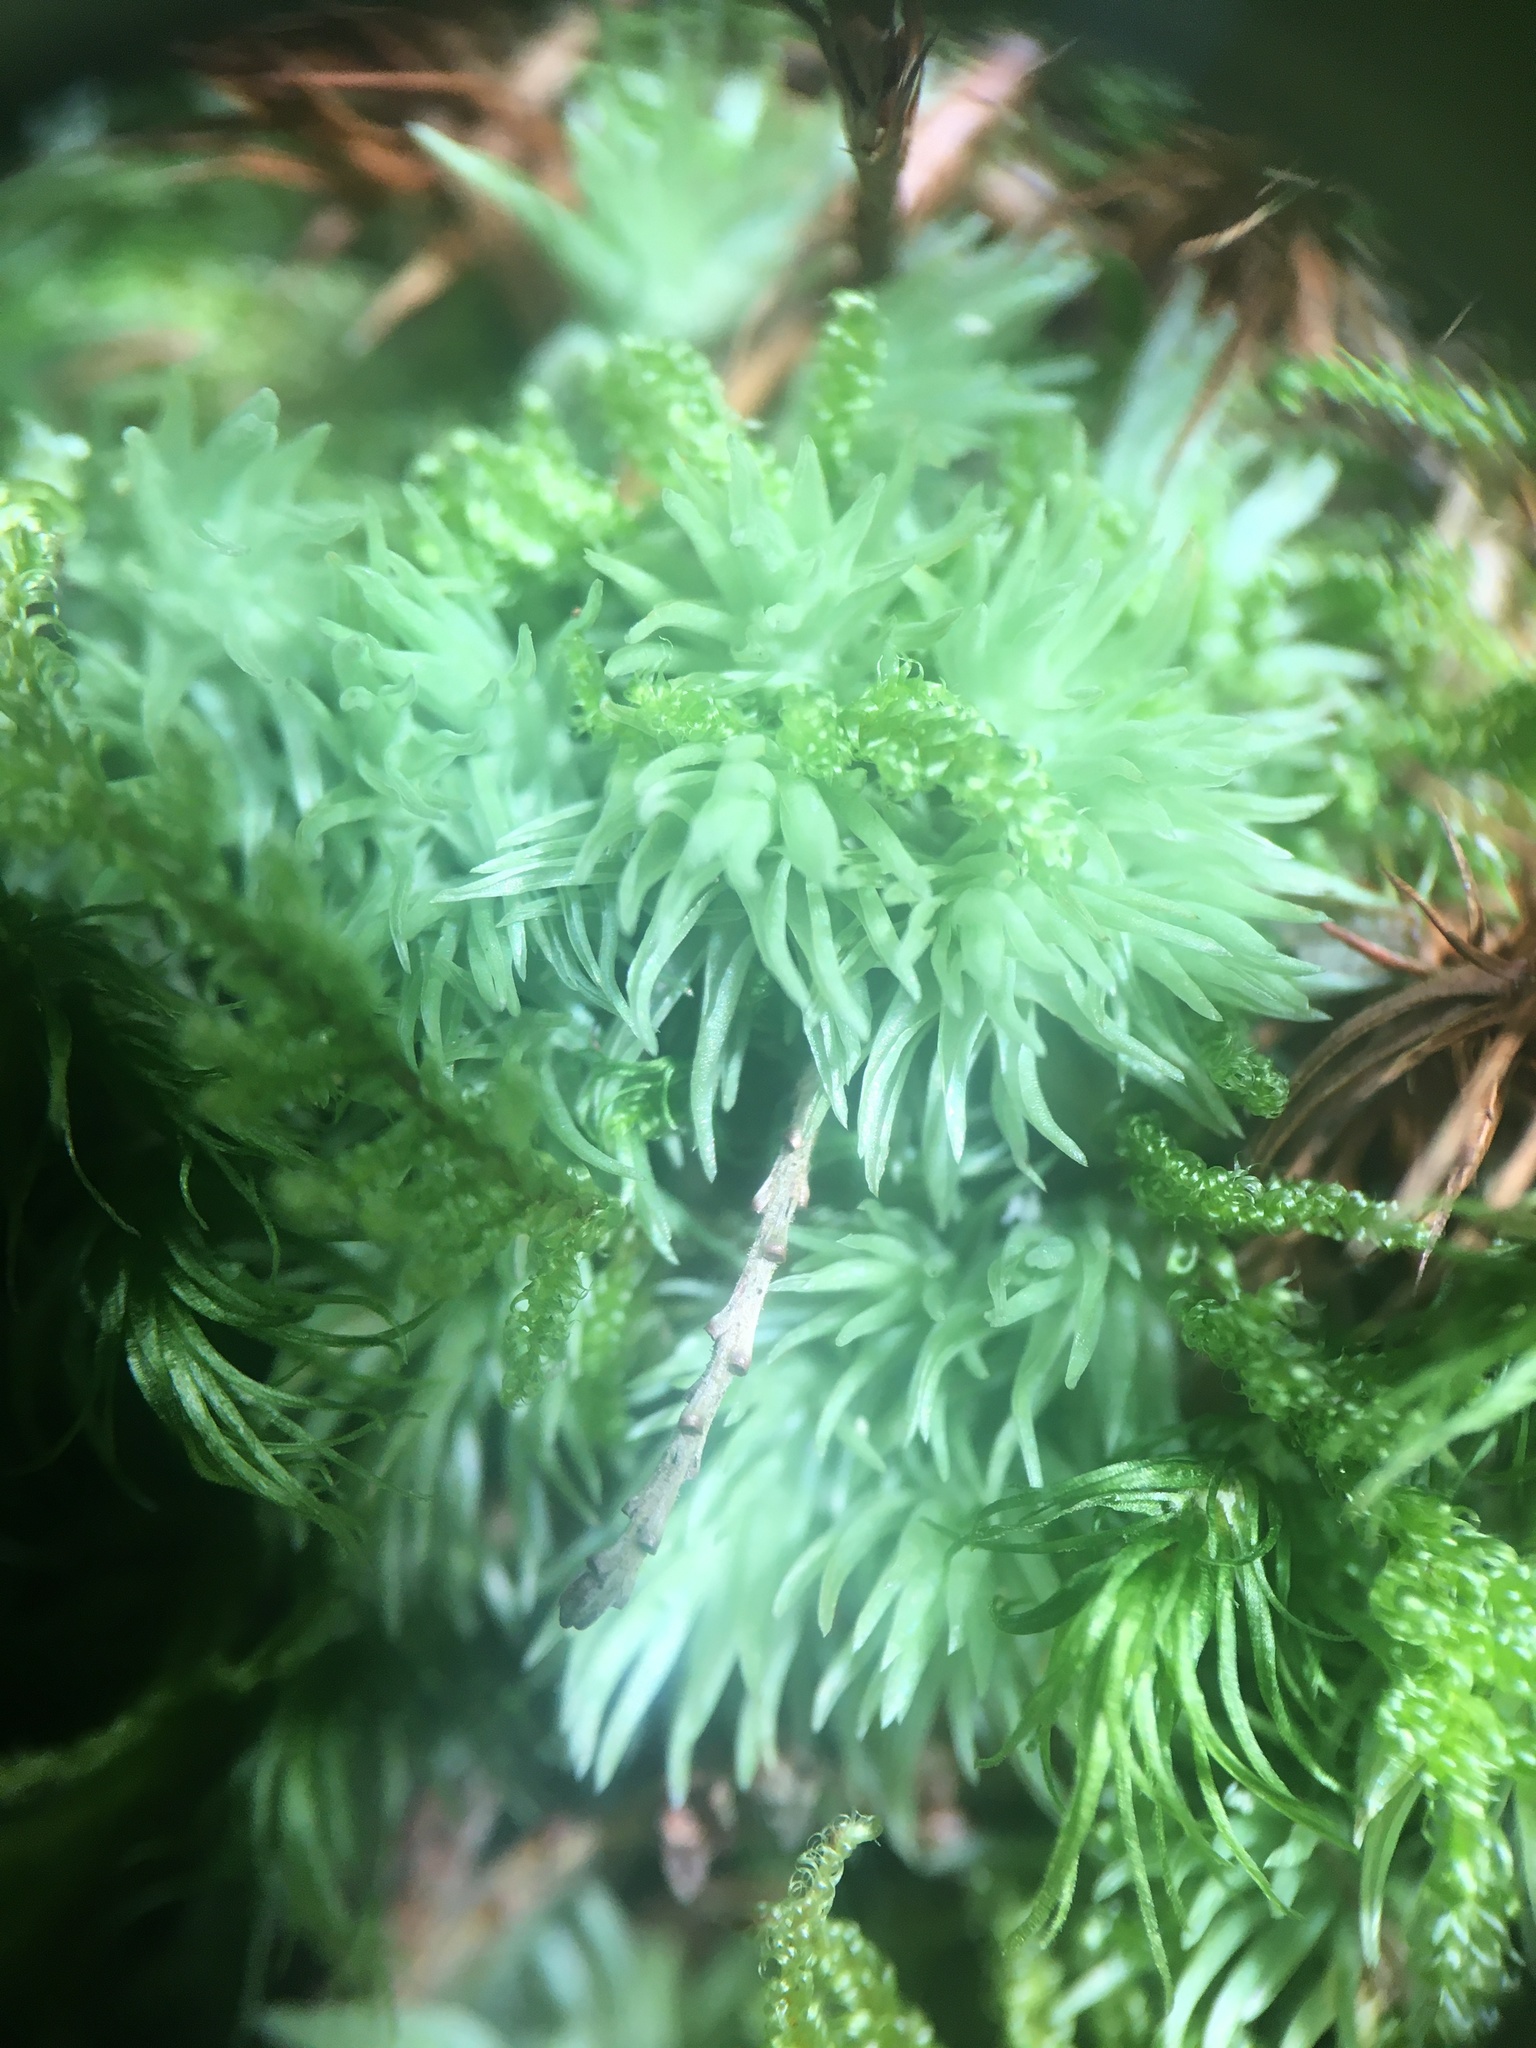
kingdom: Plantae
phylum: Bryophyta
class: Bryopsida
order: Dicranales
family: Leucobryaceae
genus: Leucobryum
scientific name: Leucobryum glaucum
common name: Large white-moss
